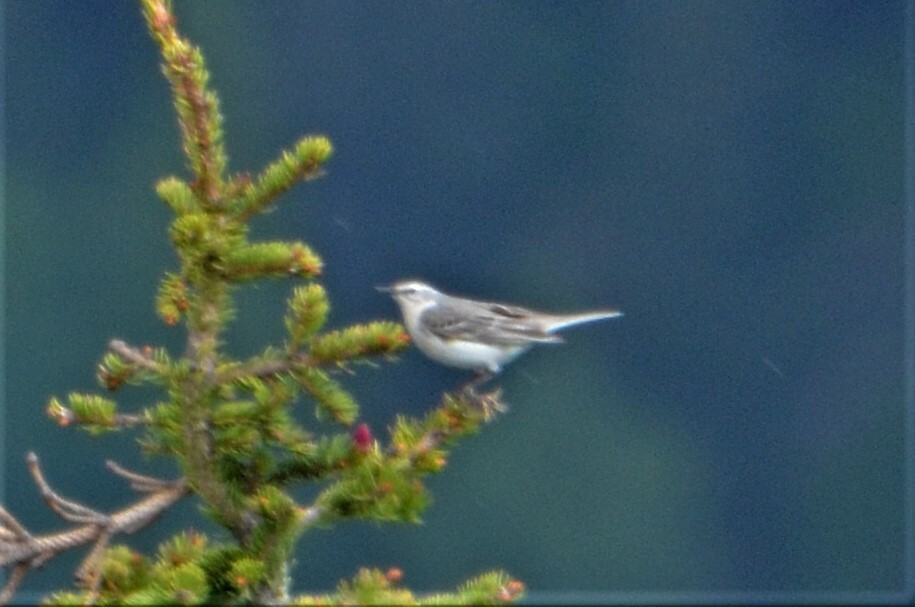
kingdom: Animalia
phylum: Chordata
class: Aves
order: Passeriformes
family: Motacillidae
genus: Anthus
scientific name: Anthus spinoletta
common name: Water pipit
